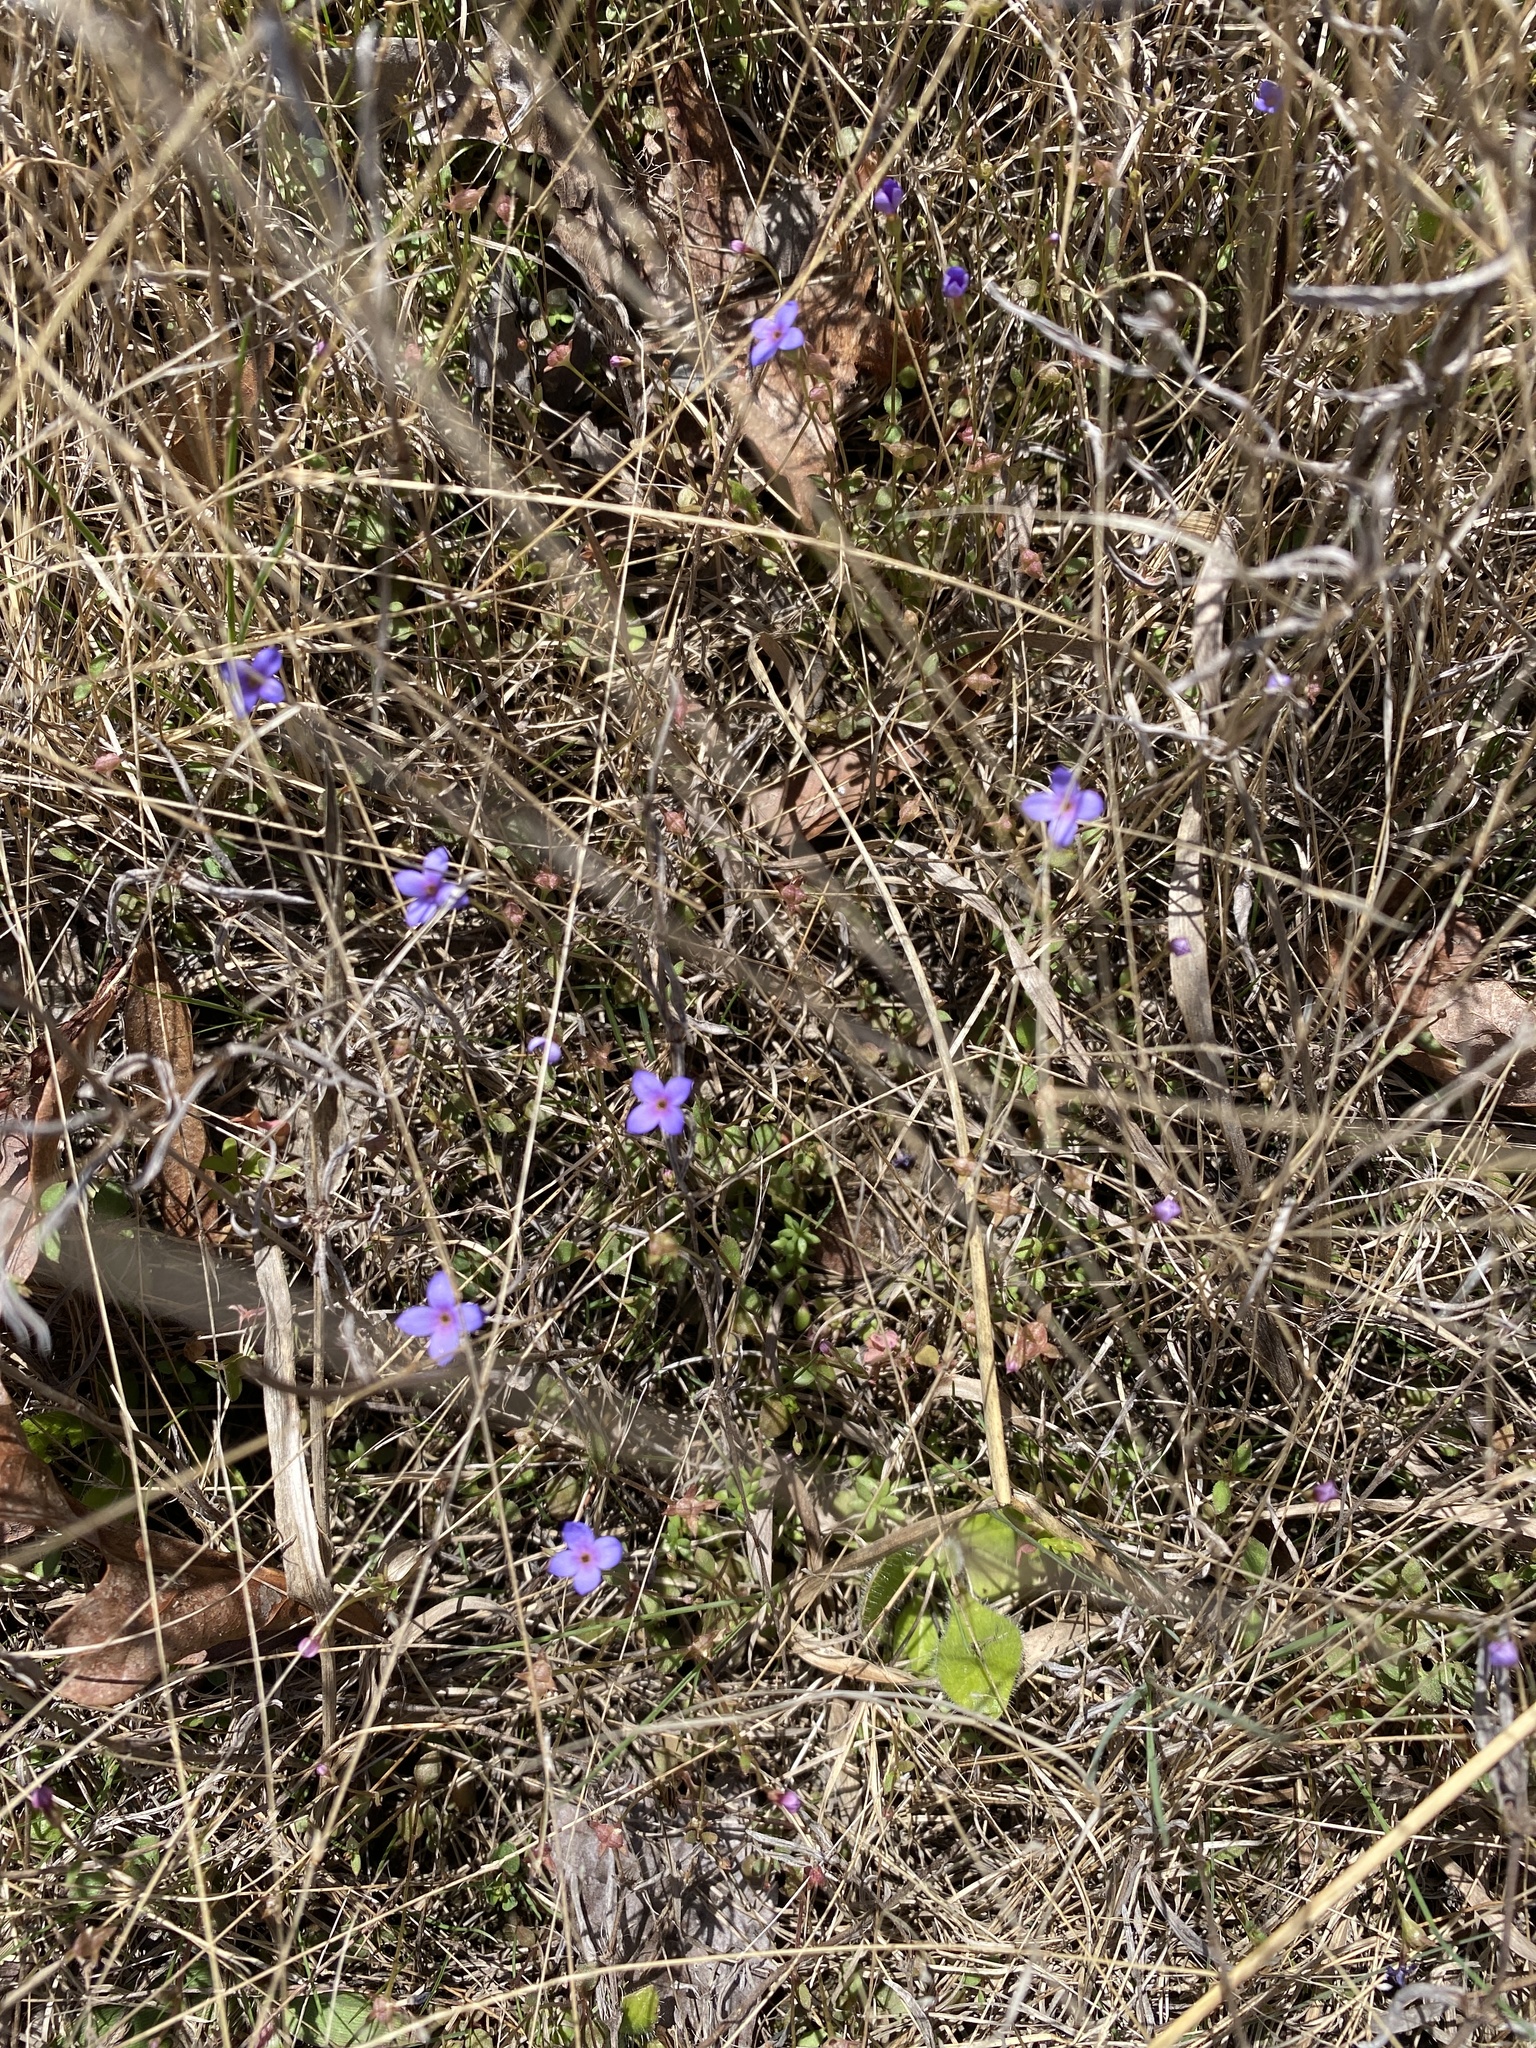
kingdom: Plantae
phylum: Tracheophyta
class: Magnoliopsida
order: Gentianales
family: Rubiaceae
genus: Houstonia
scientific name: Houstonia pusilla
